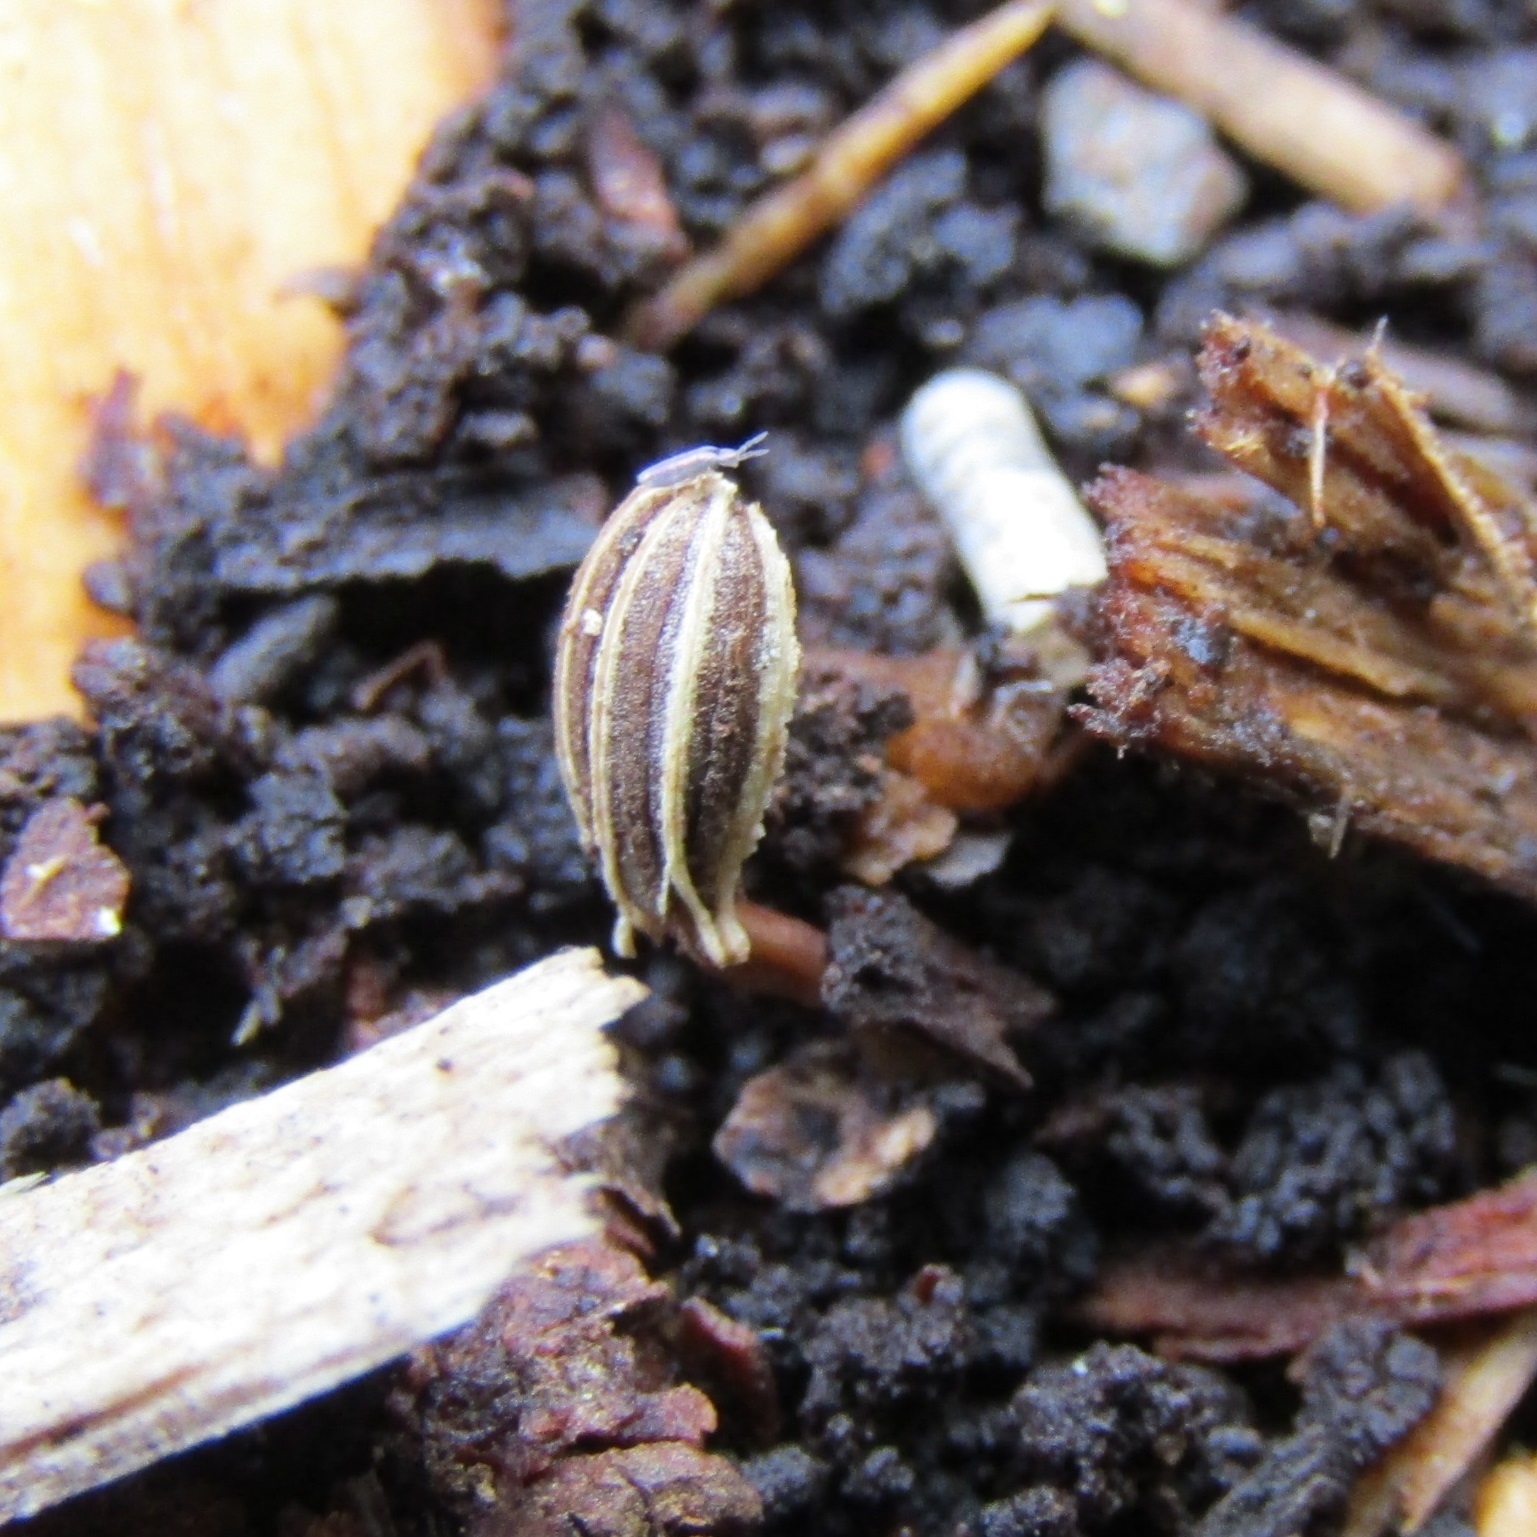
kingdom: Plantae
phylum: Tracheophyta
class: Magnoliopsida
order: Apiales
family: Apiaceae
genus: Foeniculum
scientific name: Foeniculum vulgare
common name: Fennel
